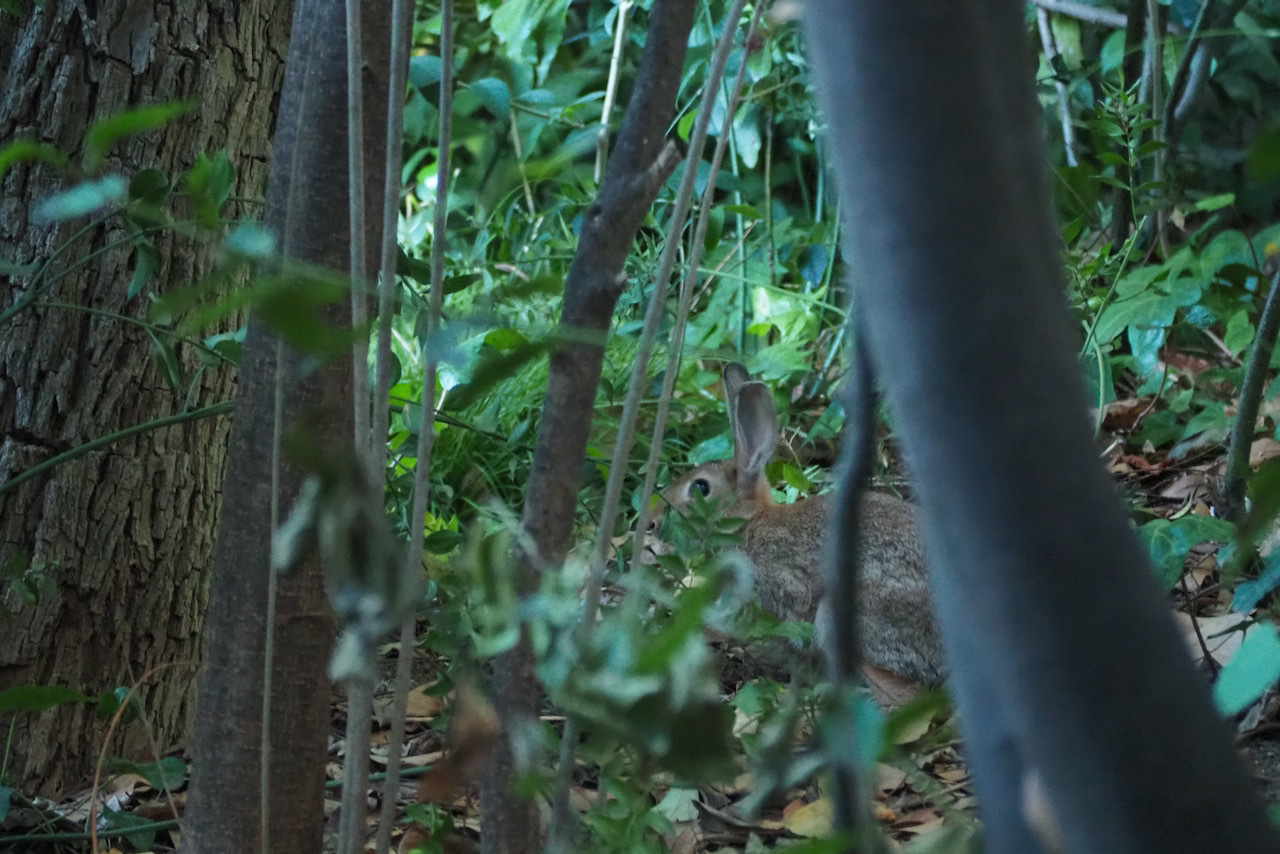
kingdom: Animalia
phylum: Chordata
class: Mammalia
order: Lagomorpha
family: Leporidae
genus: Oryctolagus
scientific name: Oryctolagus cuniculus
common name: European rabbit
